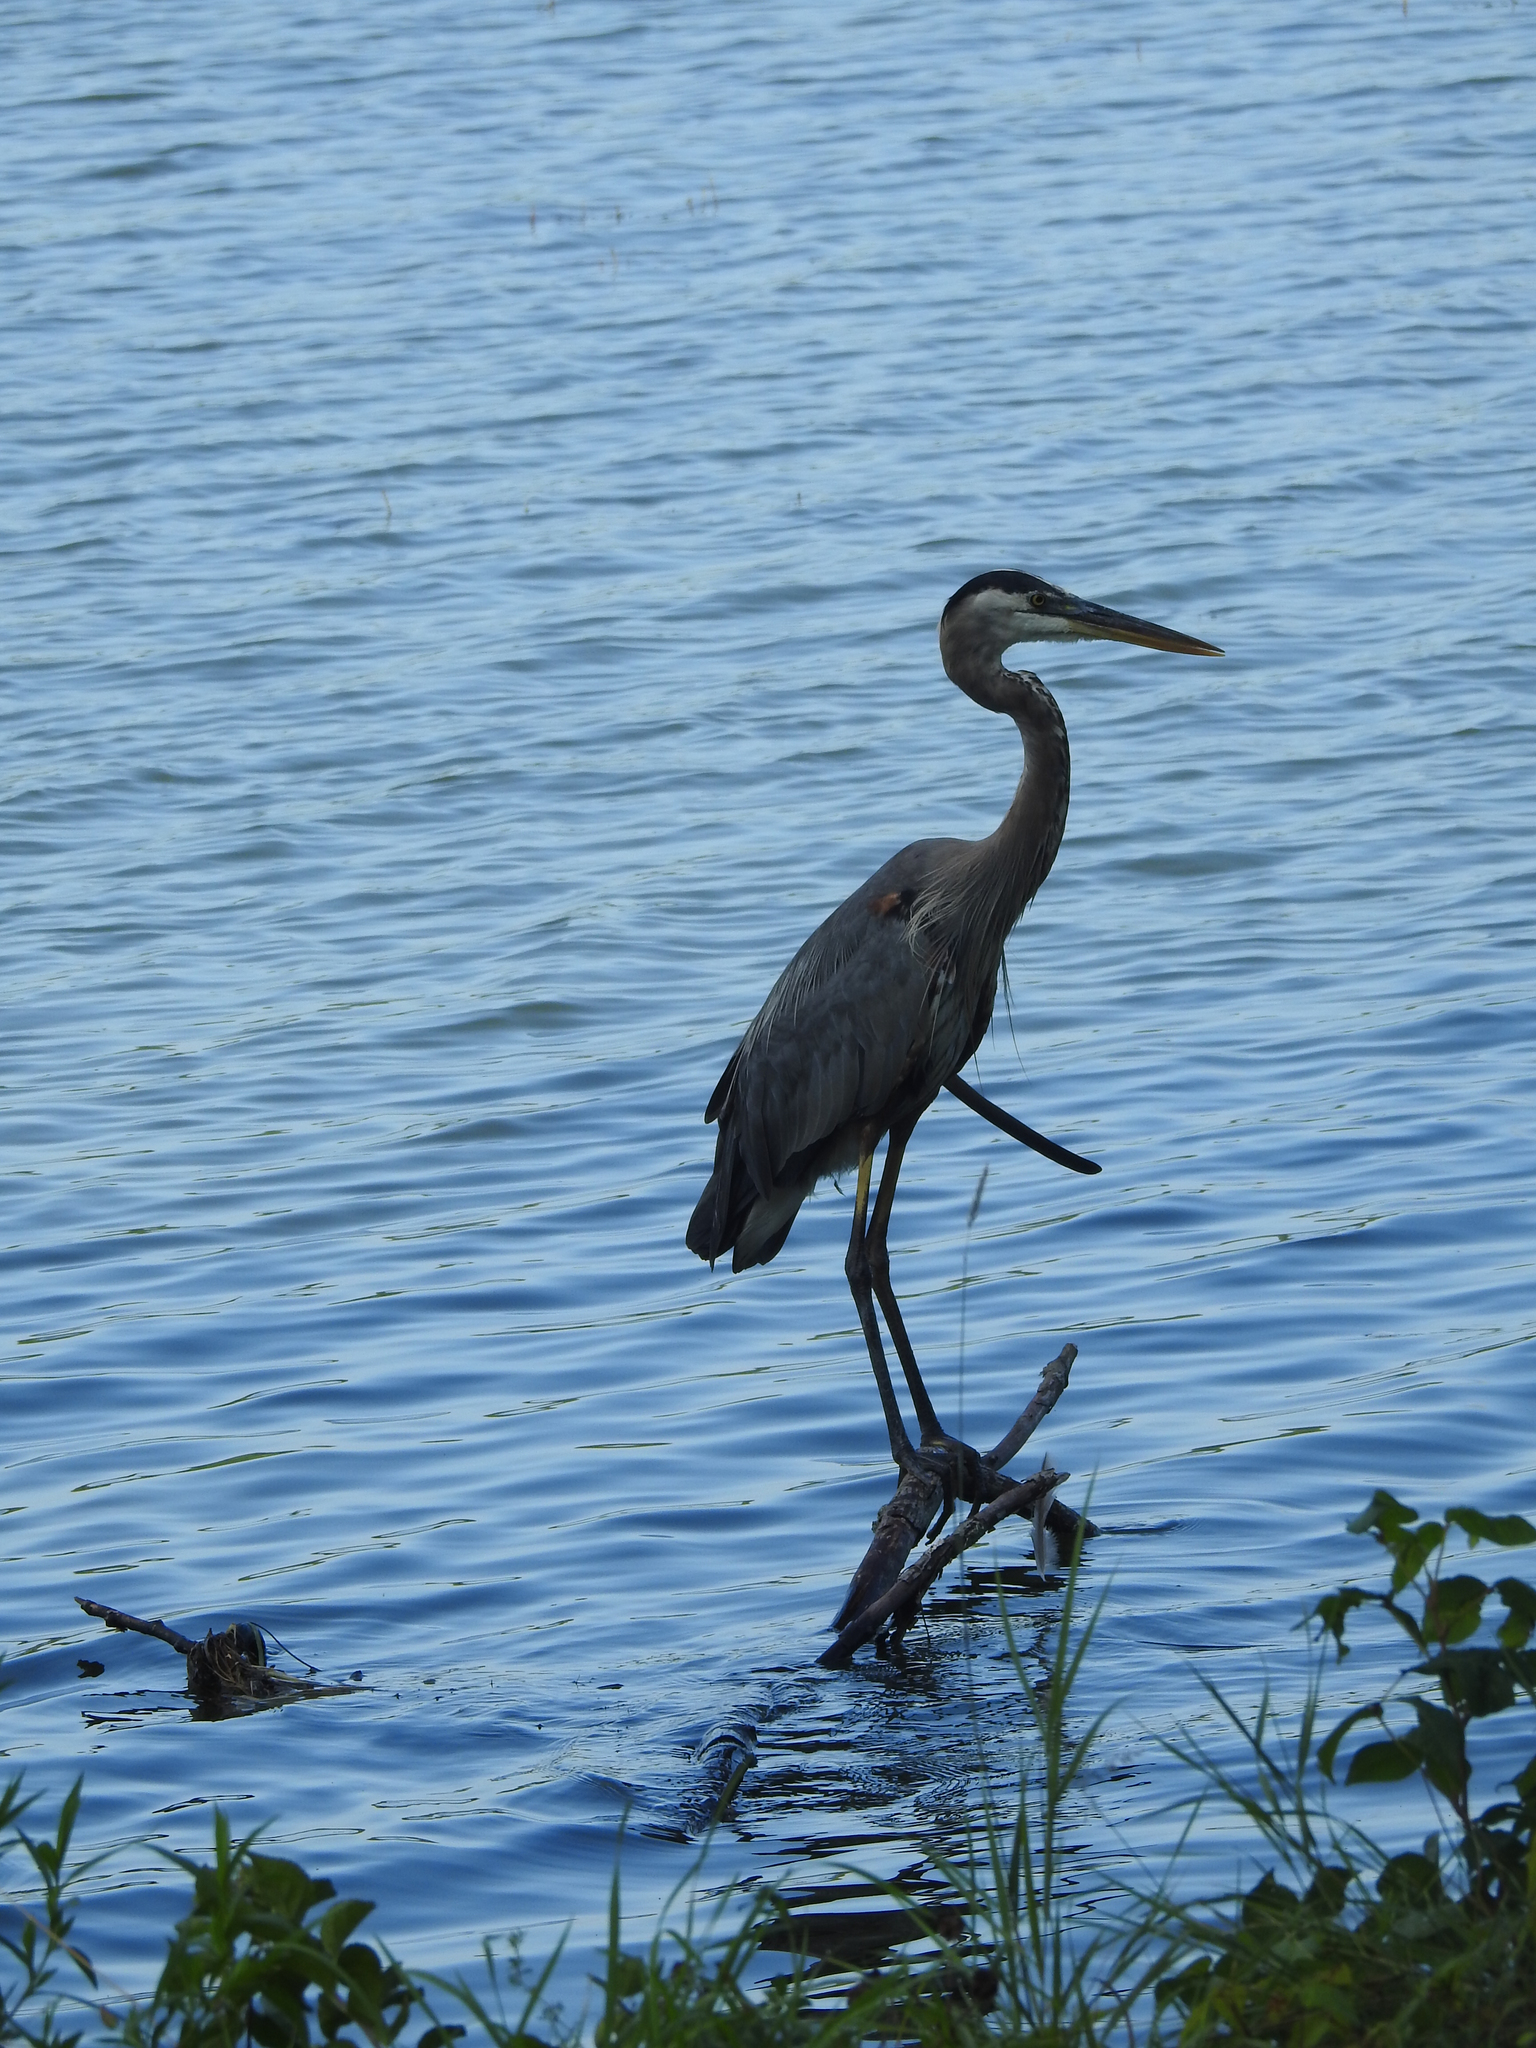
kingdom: Animalia
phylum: Chordata
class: Aves
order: Pelecaniformes
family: Ardeidae
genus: Ardea
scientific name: Ardea herodias
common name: Great blue heron
